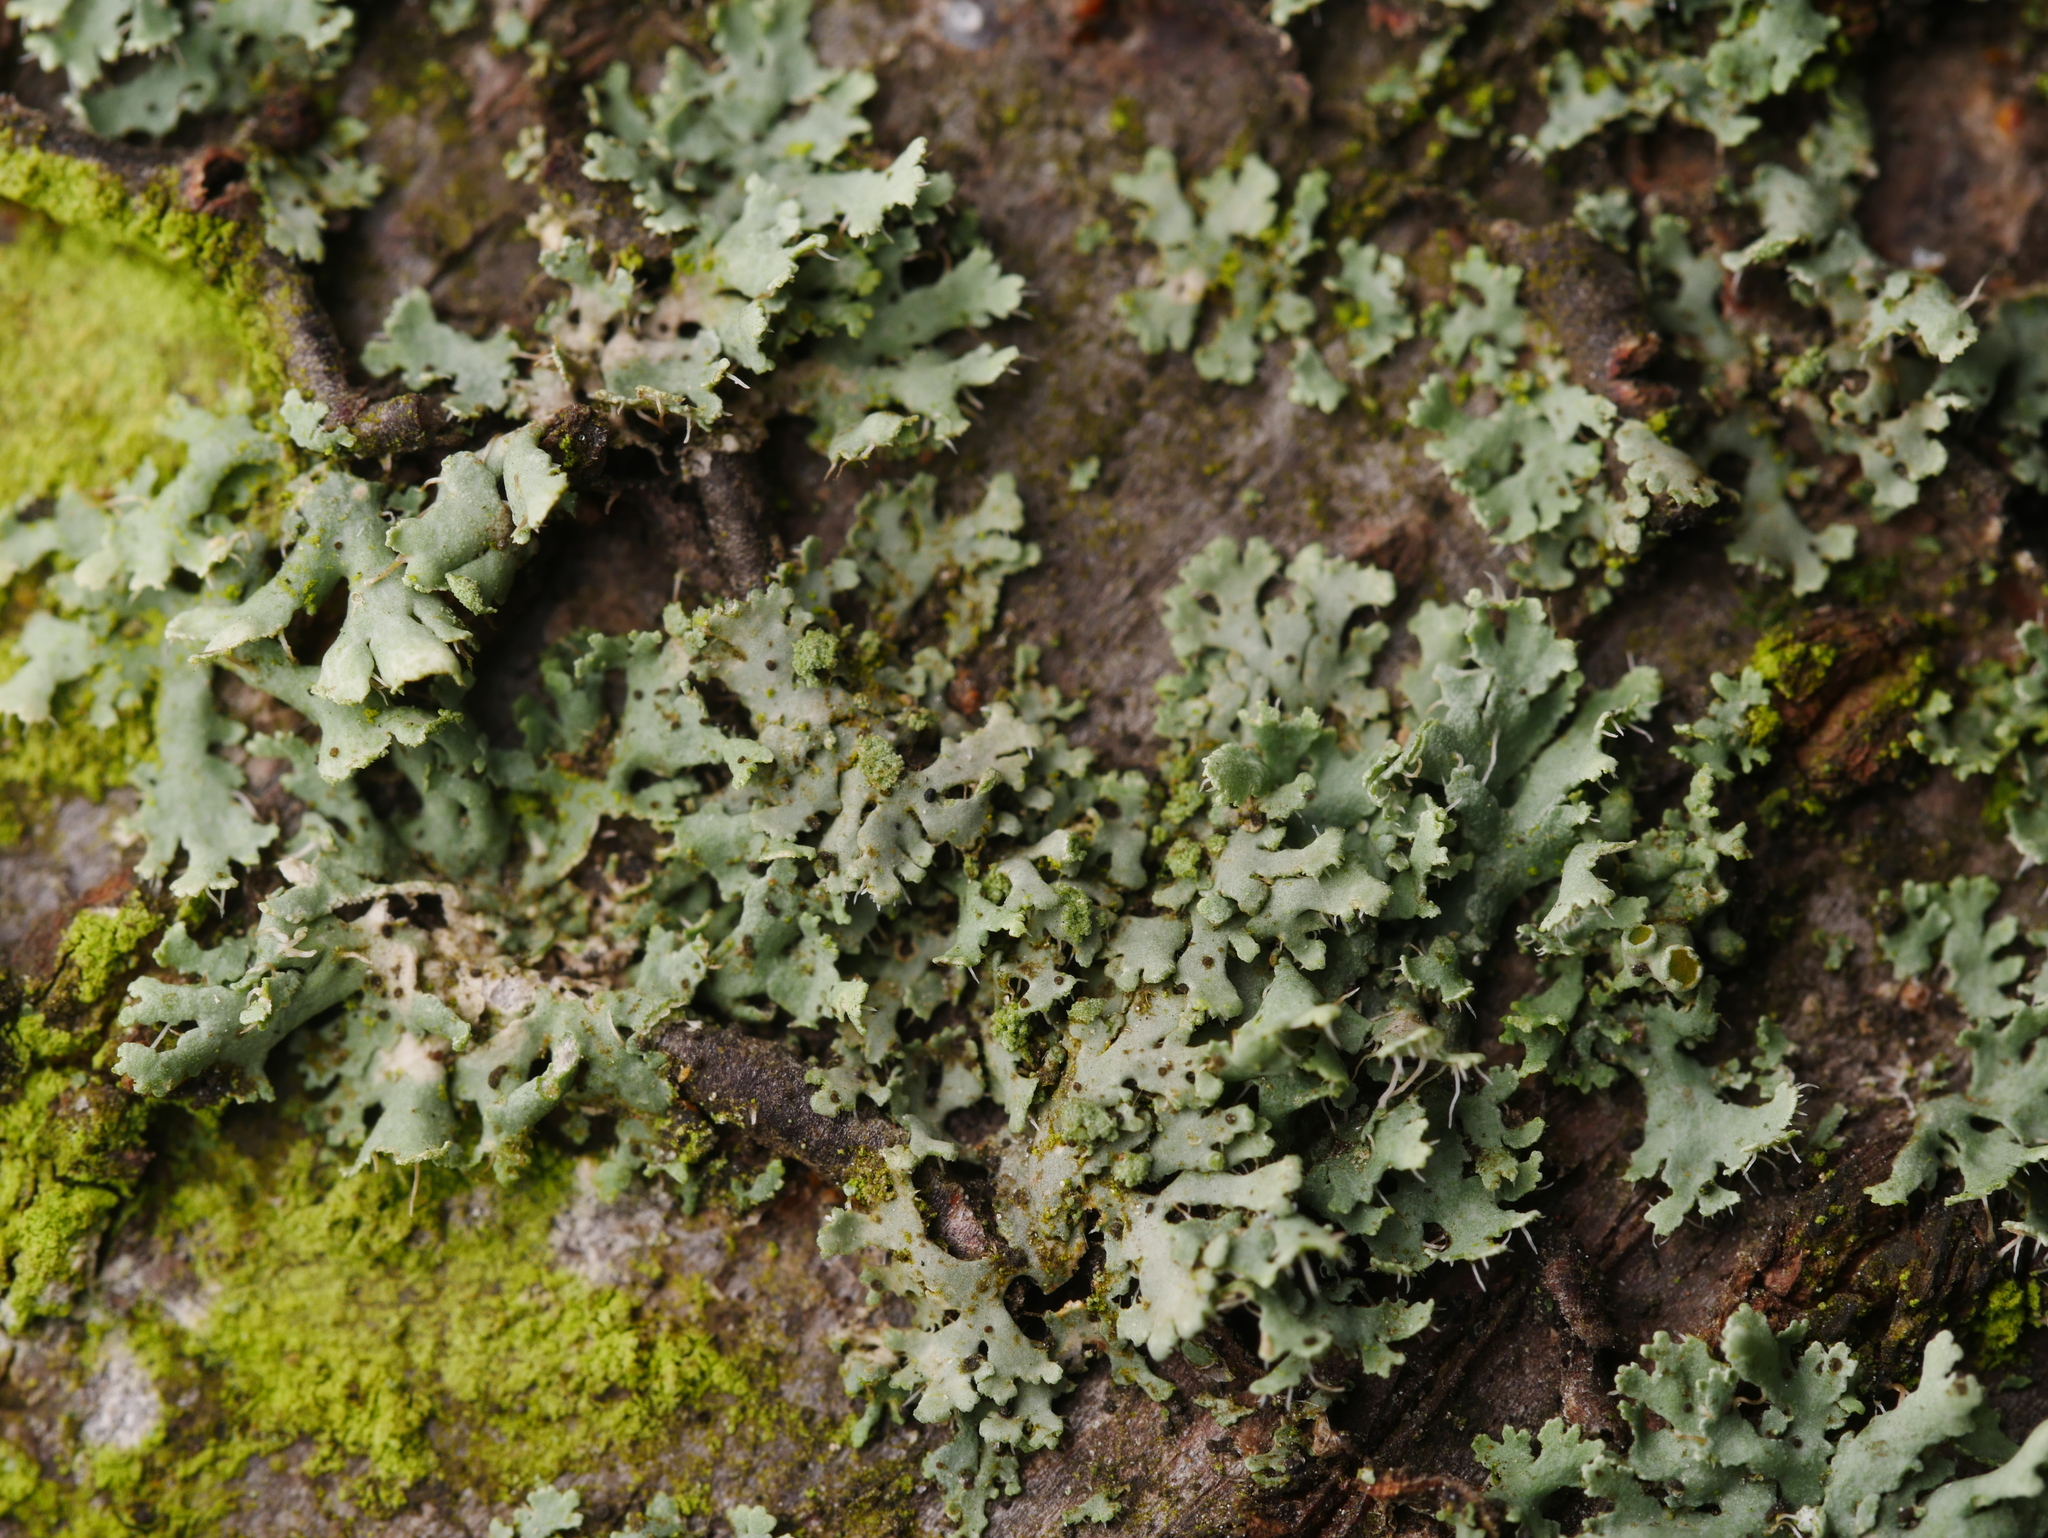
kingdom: Fungi
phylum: Ascomycota
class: Lecanoromycetes
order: Caliciales
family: Physciaceae
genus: Physcia
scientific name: Physcia tenella
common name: Fringed rosette lichen
